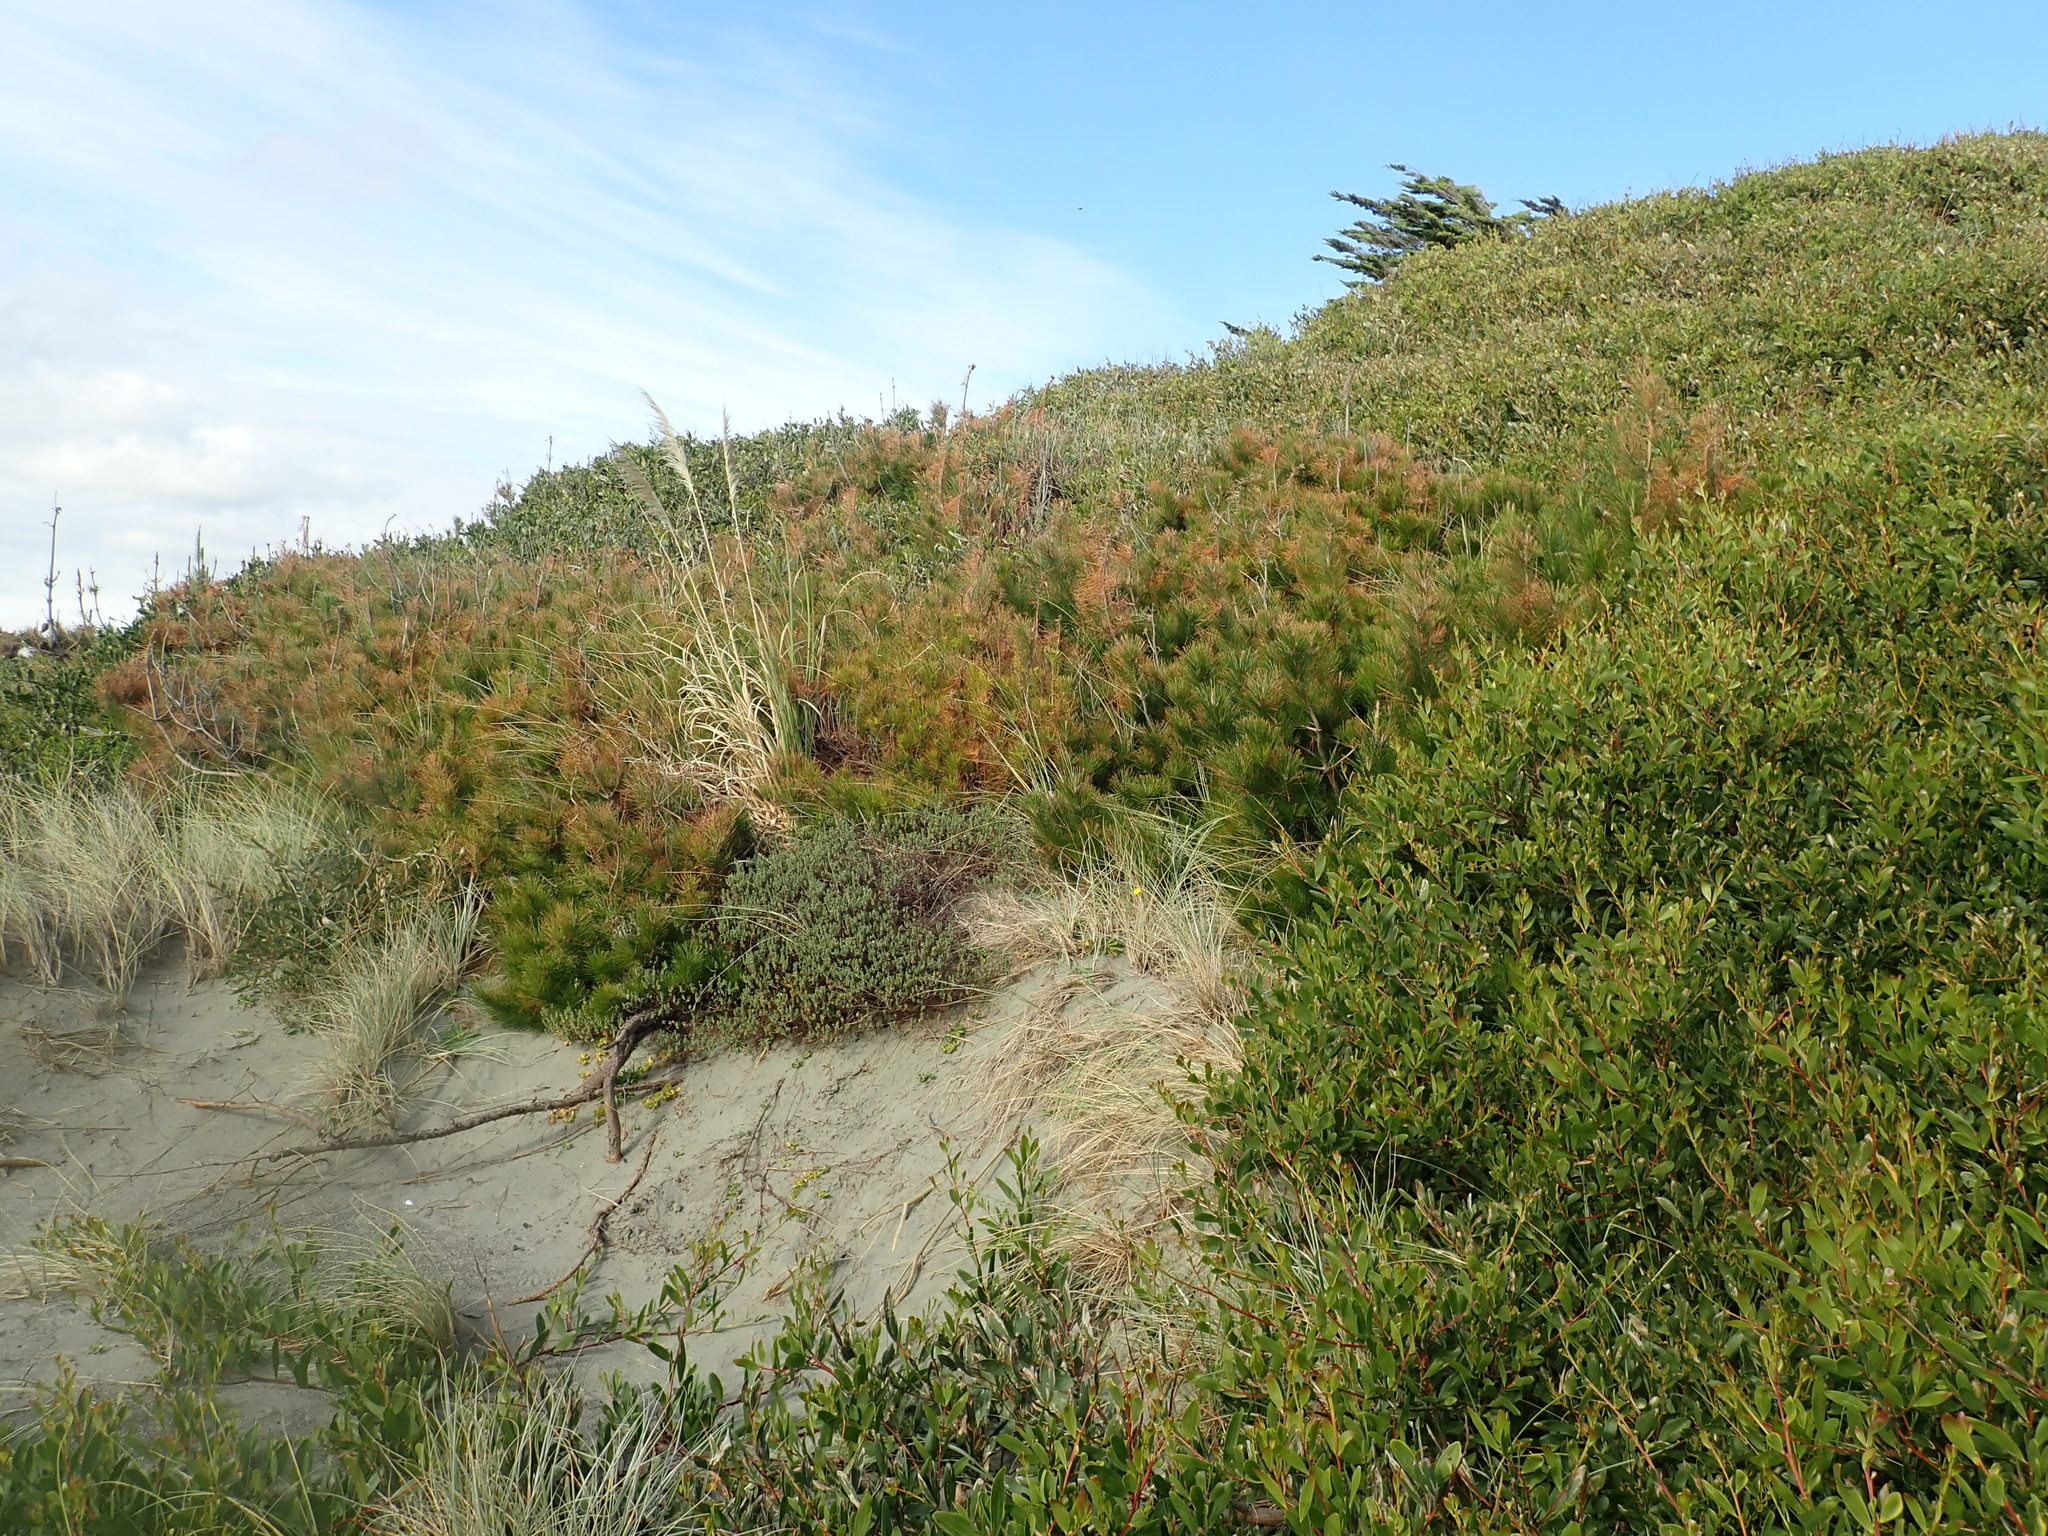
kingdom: Plantae
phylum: Tracheophyta
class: Pinopsida
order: Pinales
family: Pinaceae
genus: Pinus
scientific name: Pinus radiata
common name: Monterey pine
